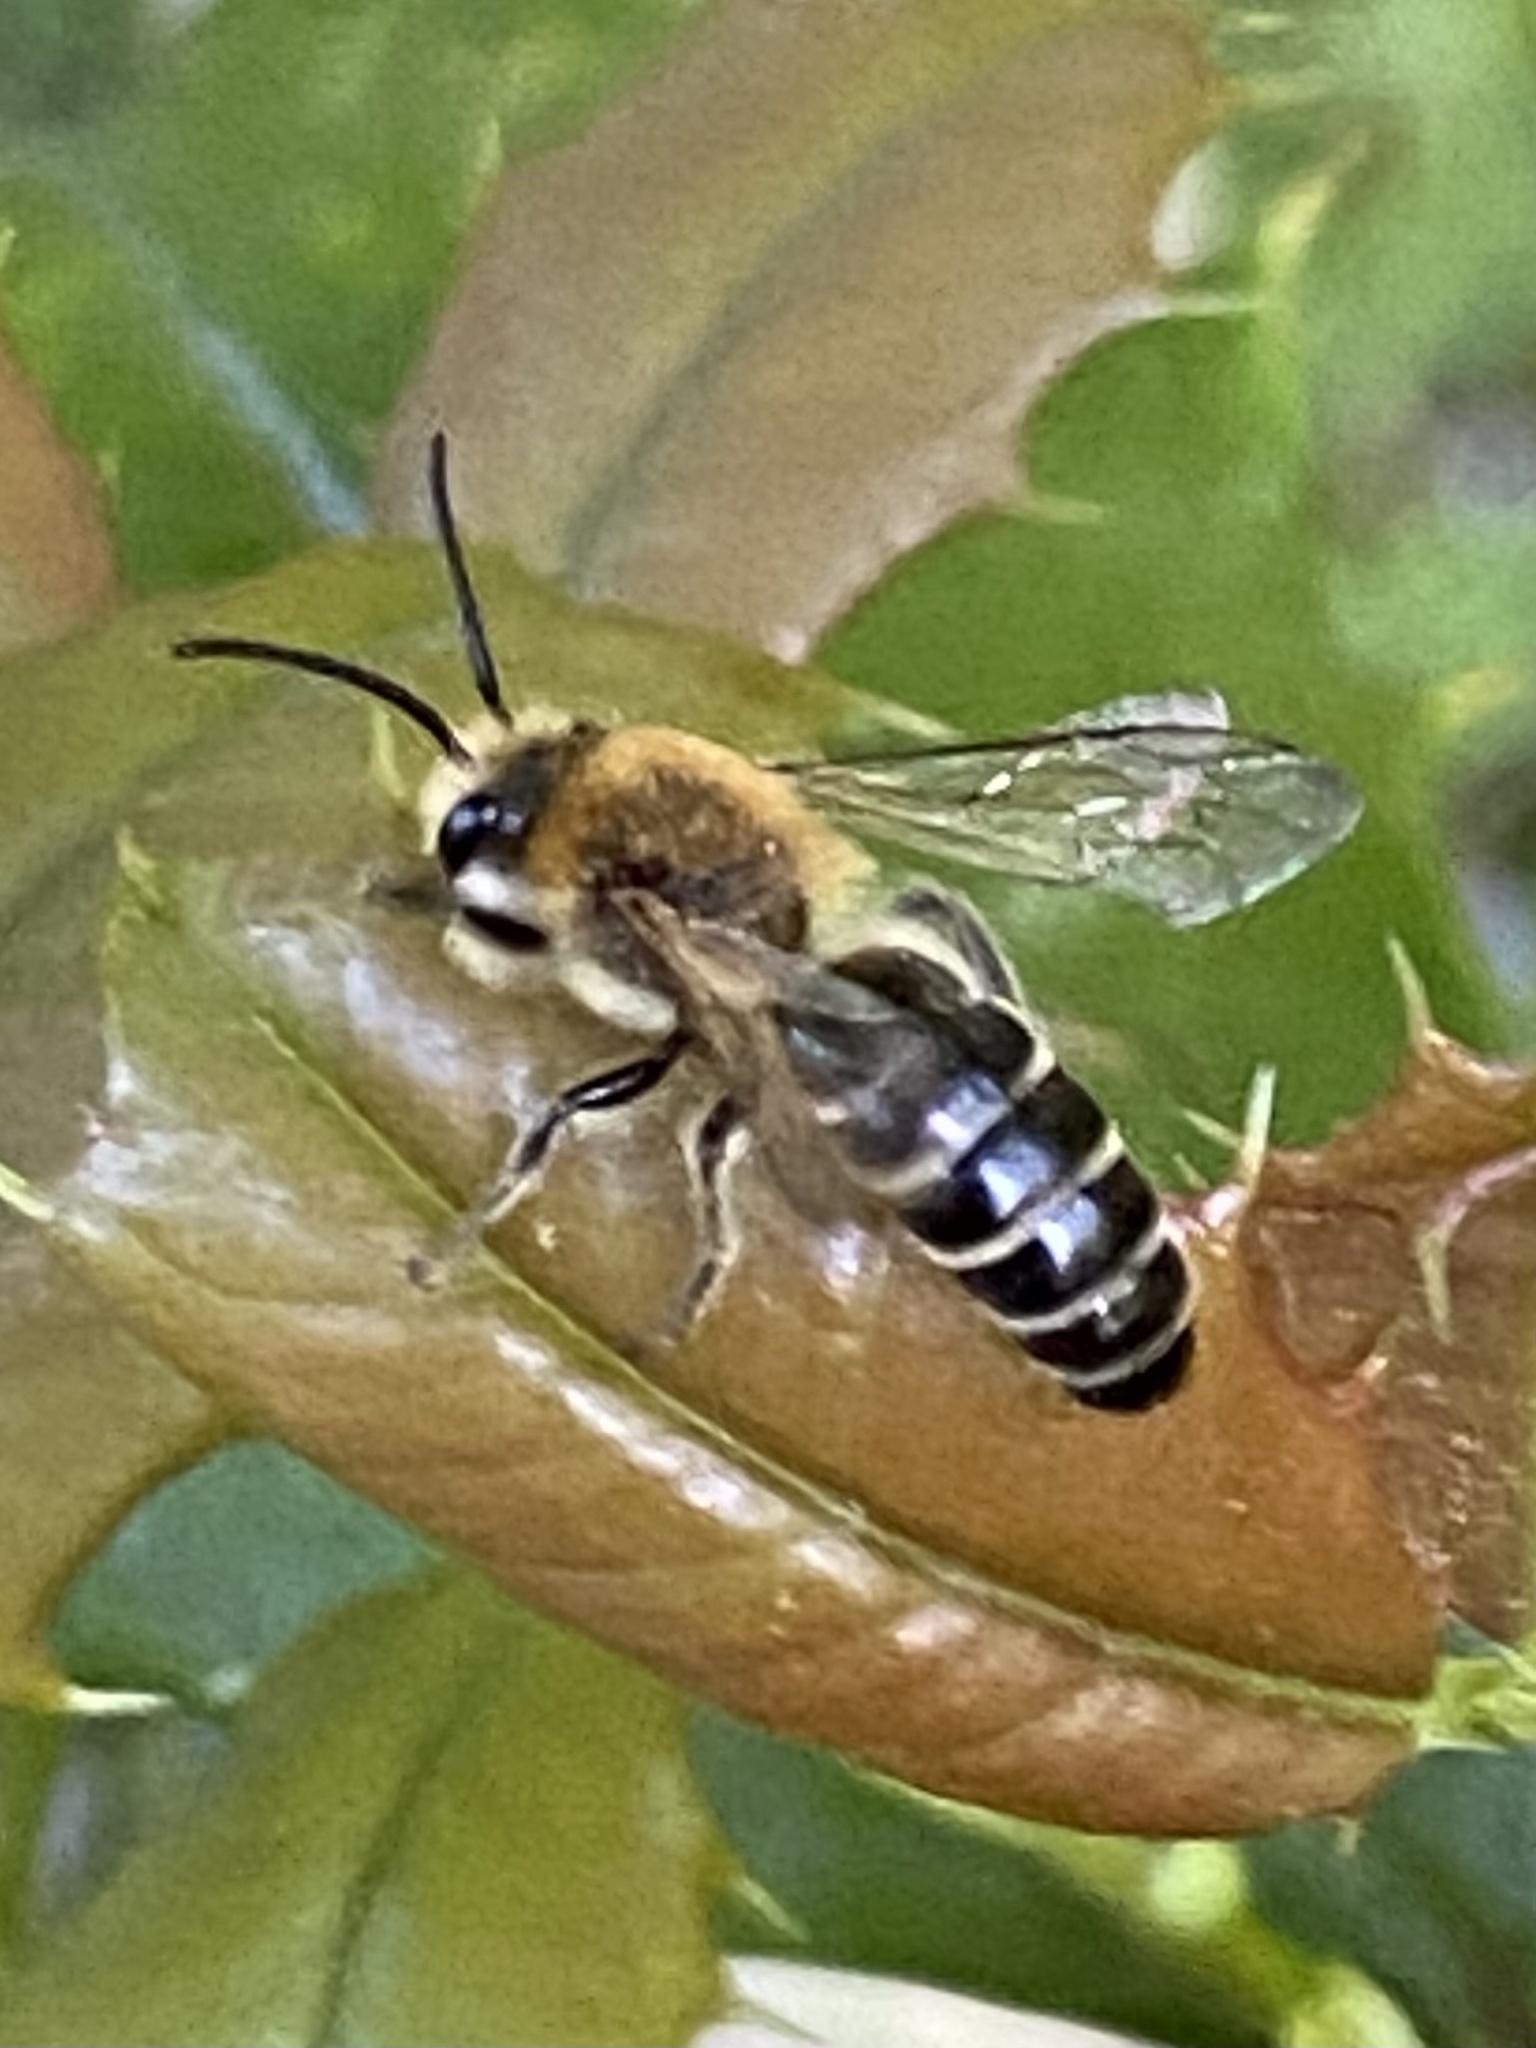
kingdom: Animalia
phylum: Arthropoda
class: Insecta
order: Hymenoptera
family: Colletidae
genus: Colletes
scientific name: Colletes thoracicus
